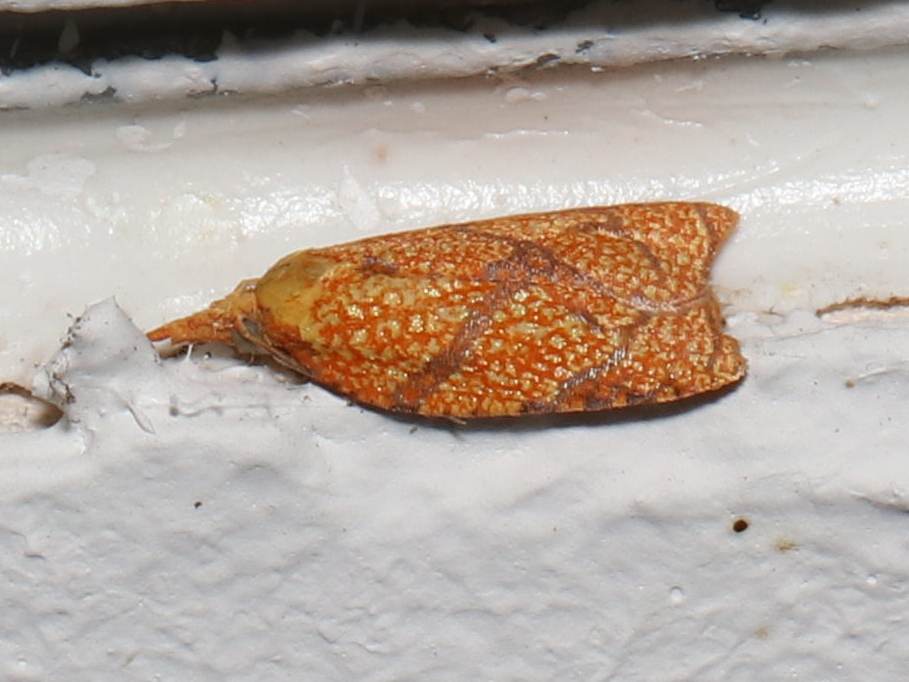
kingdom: Animalia
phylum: Arthropoda
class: Insecta
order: Lepidoptera
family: Tortricidae
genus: Cenopis
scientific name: Cenopis reticulatana
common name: Reticulated fruitworm moth
